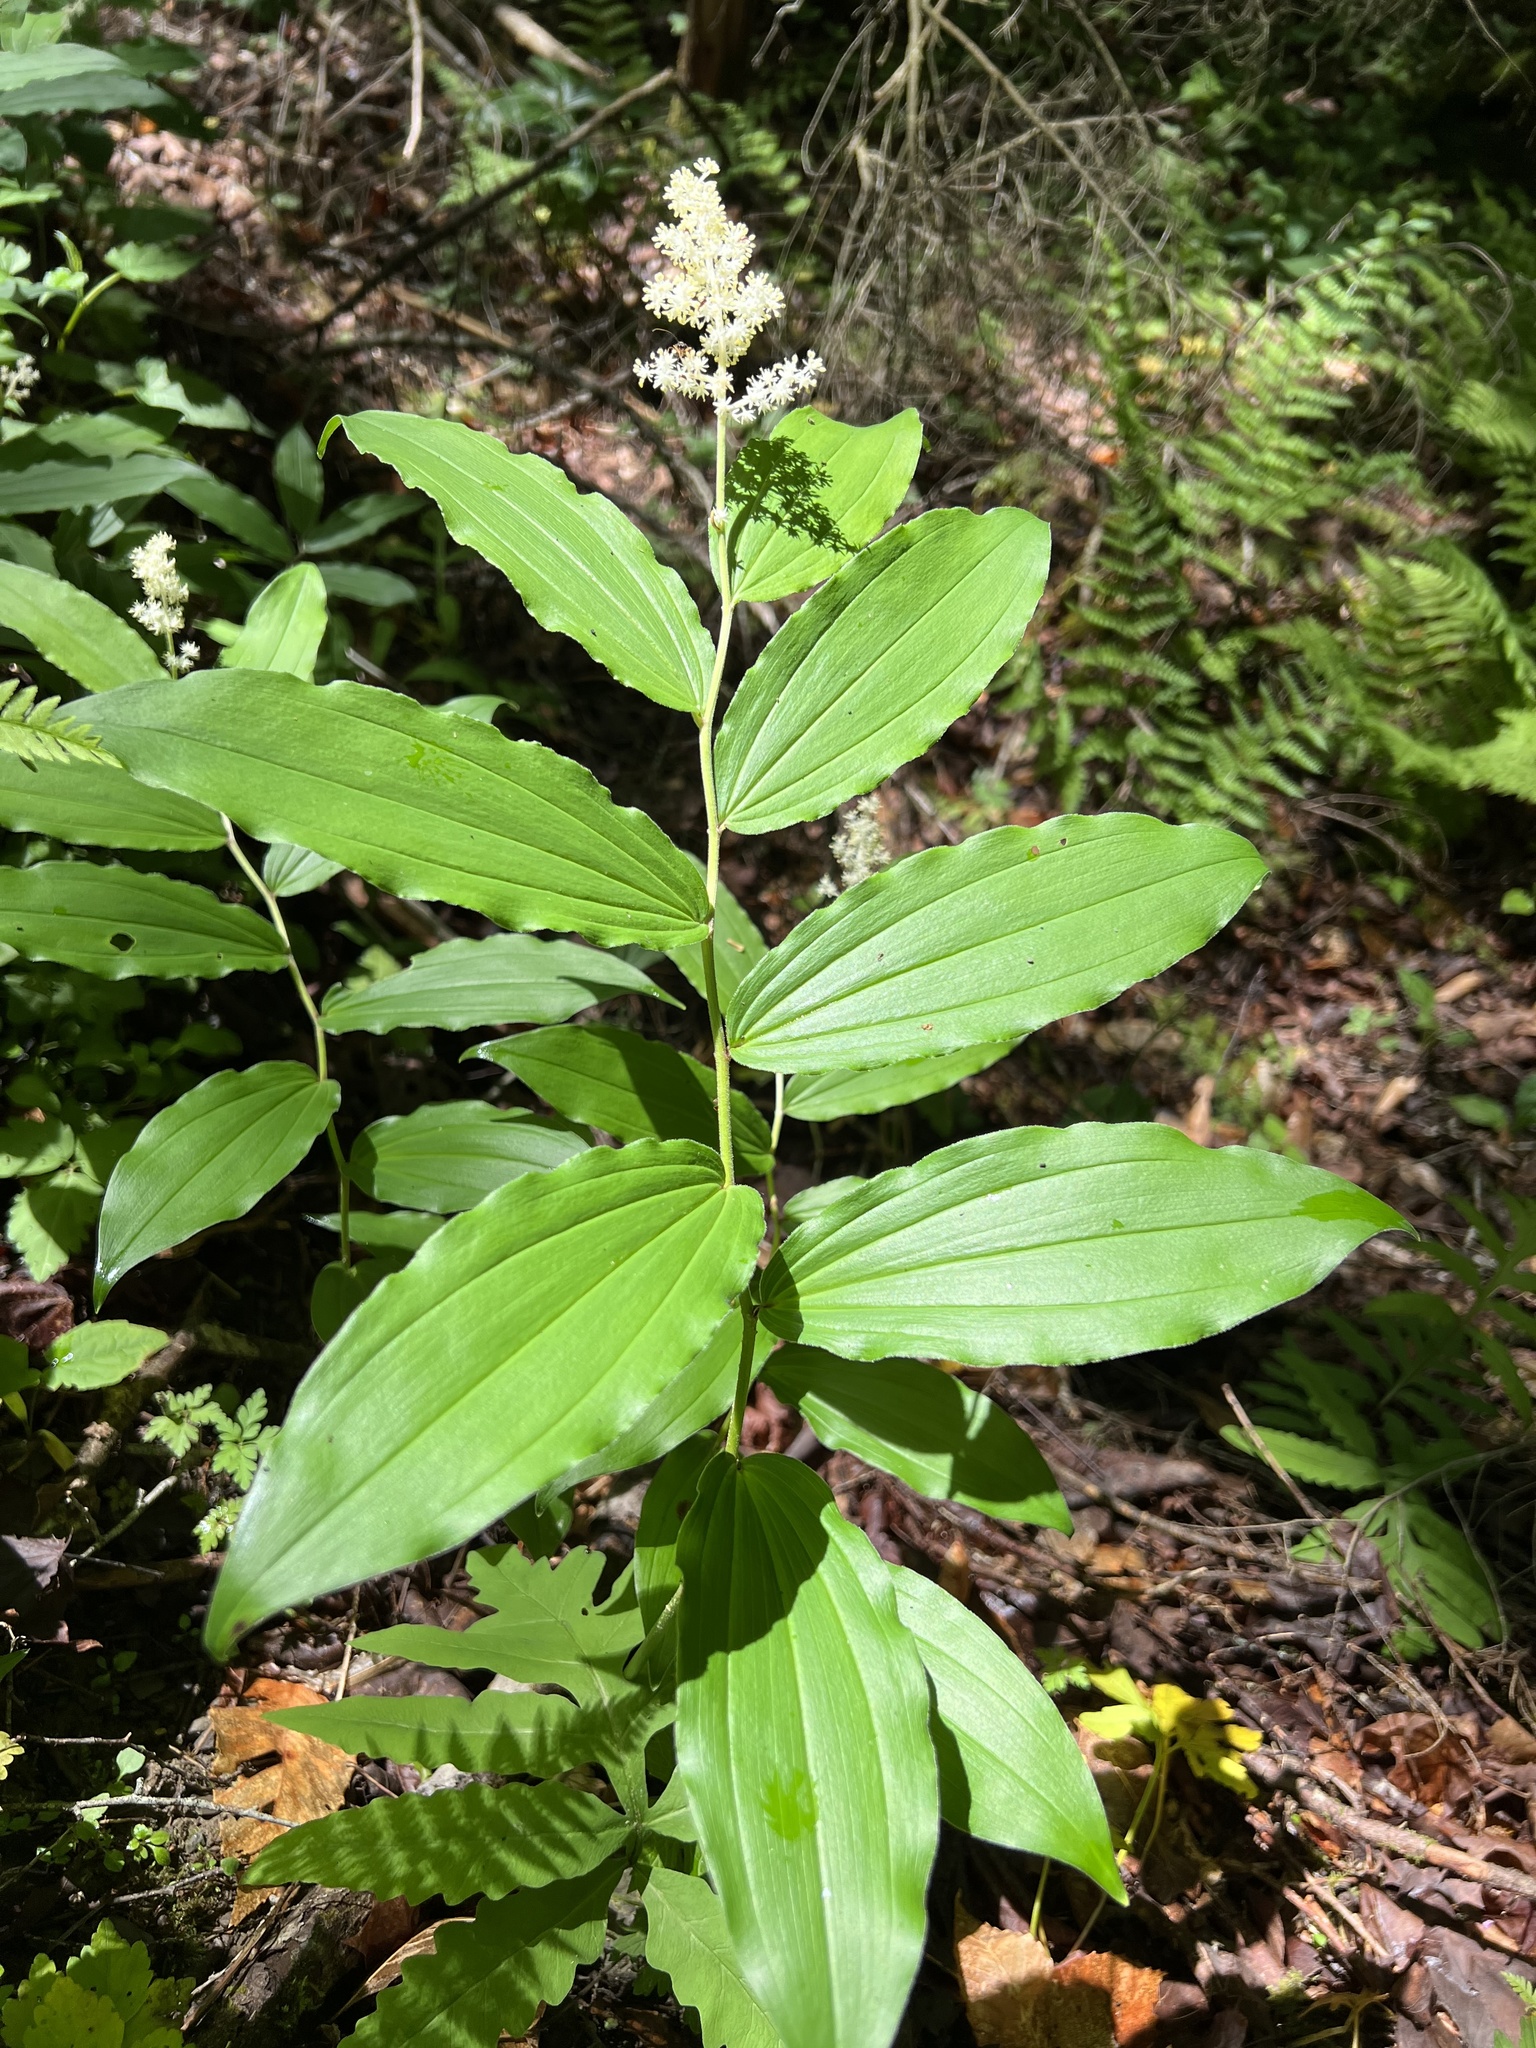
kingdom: Plantae
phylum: Tracheophyta
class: Liliopsida
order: Asparagales
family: Asparagaceae
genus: Maianthemum
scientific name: Maianthemum racemosum
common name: False spikenard
